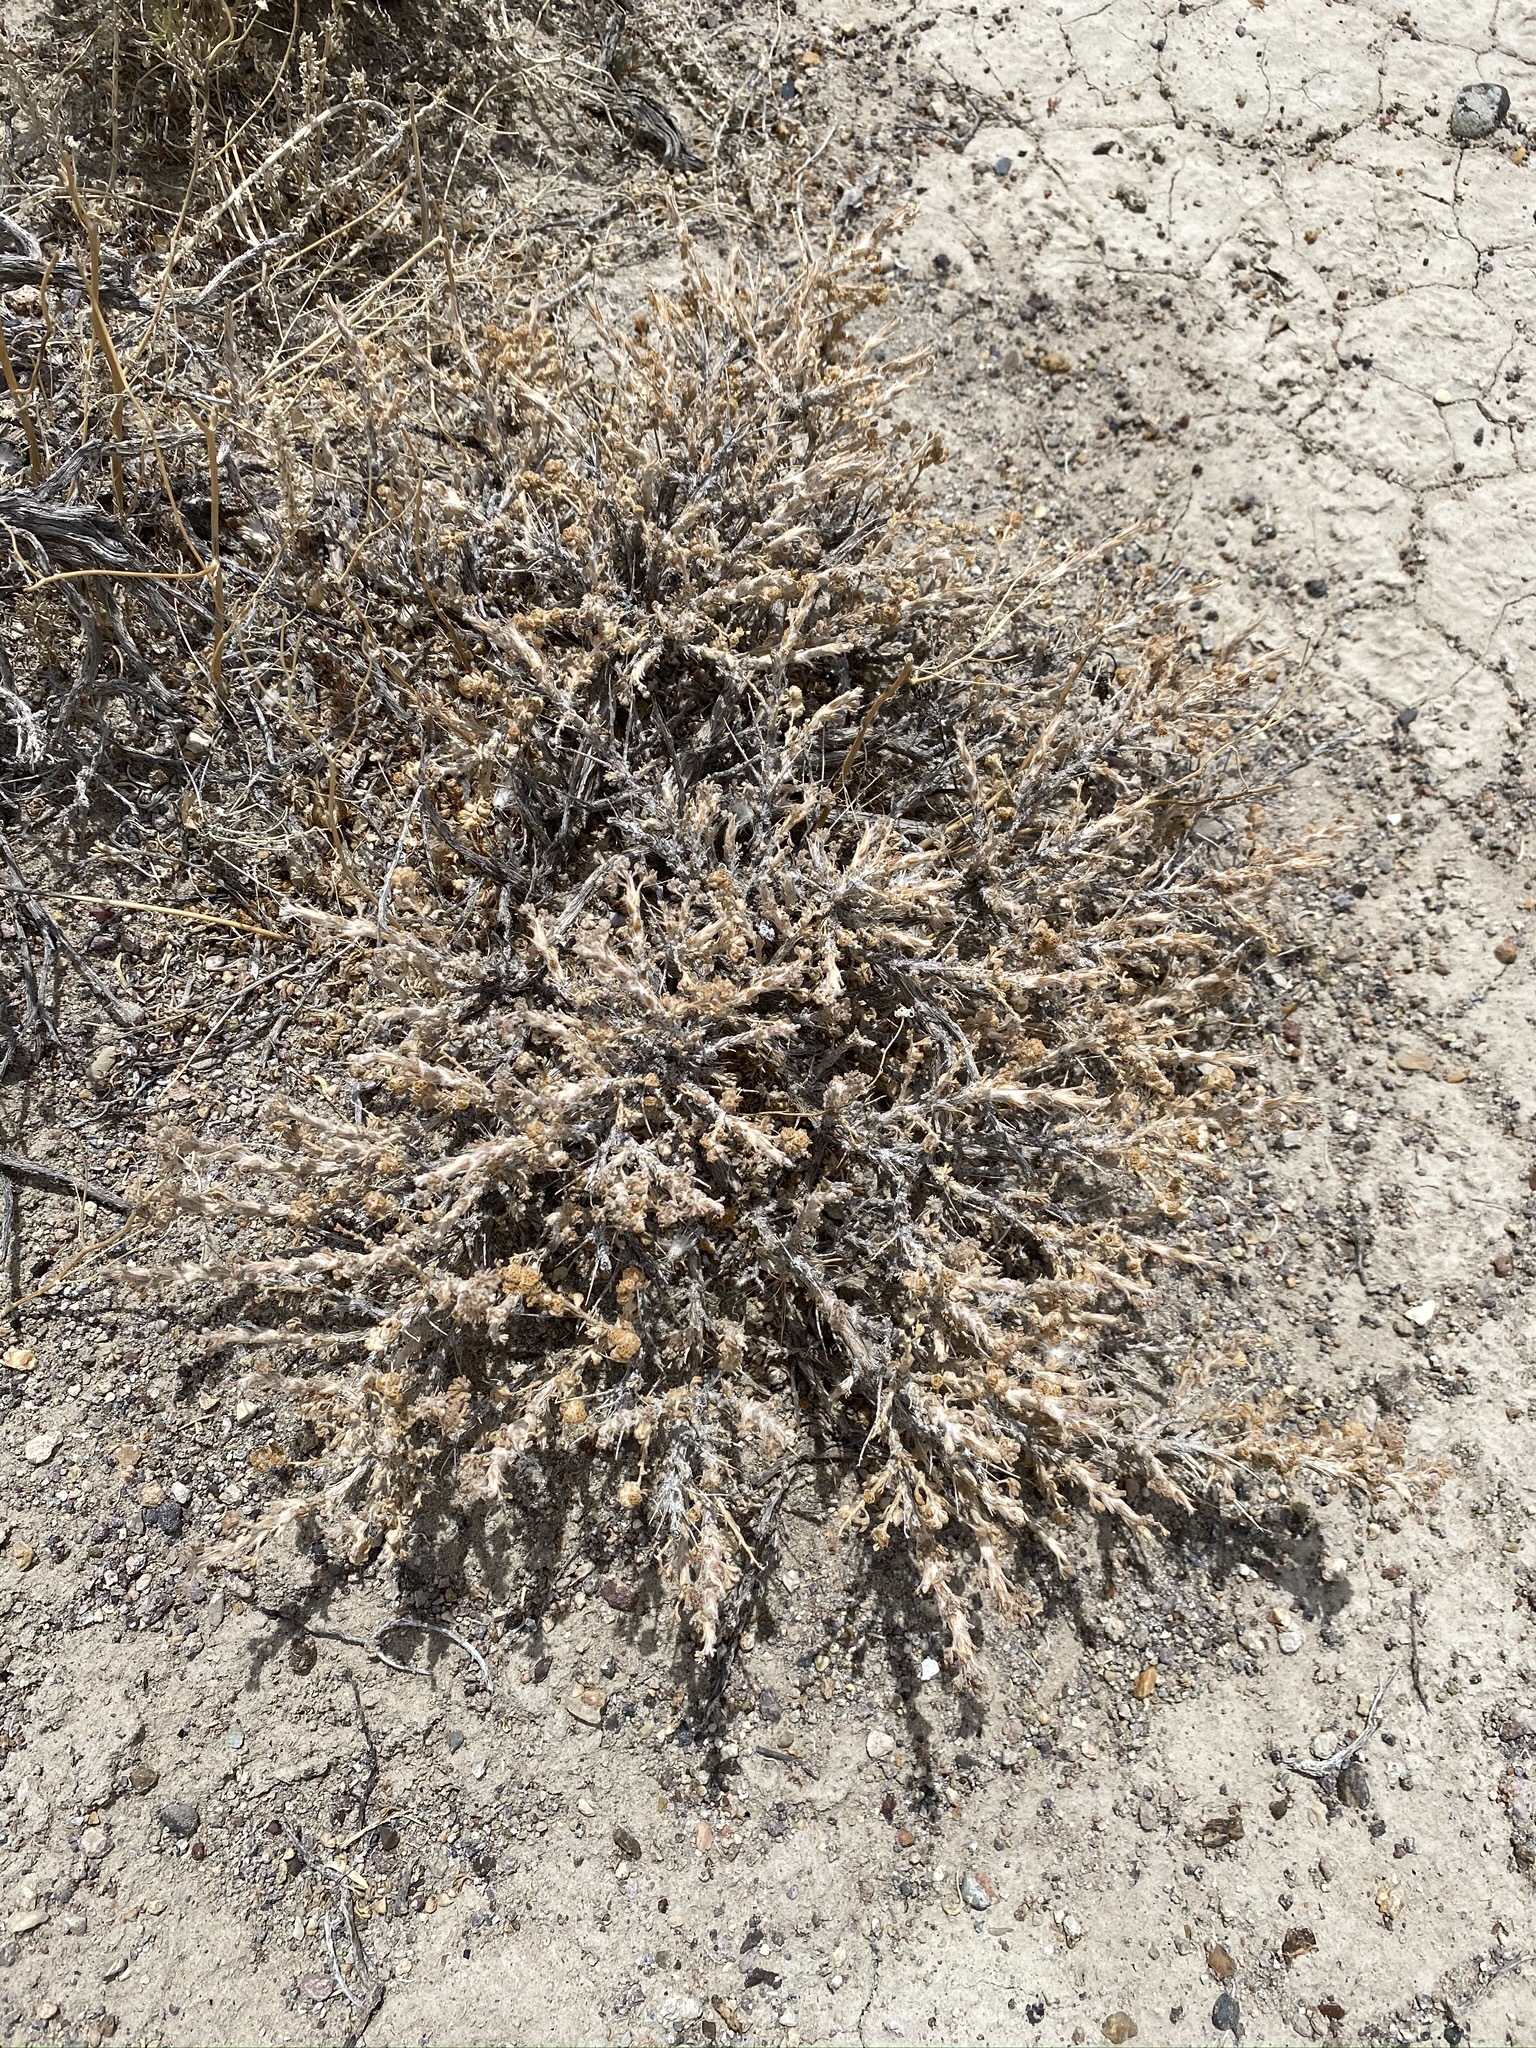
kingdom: Plantae
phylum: Tracheophyta
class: Magnoliopsida
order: Asterales
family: Asteraceae
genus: Artemisia
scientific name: Artemisia spinescens
